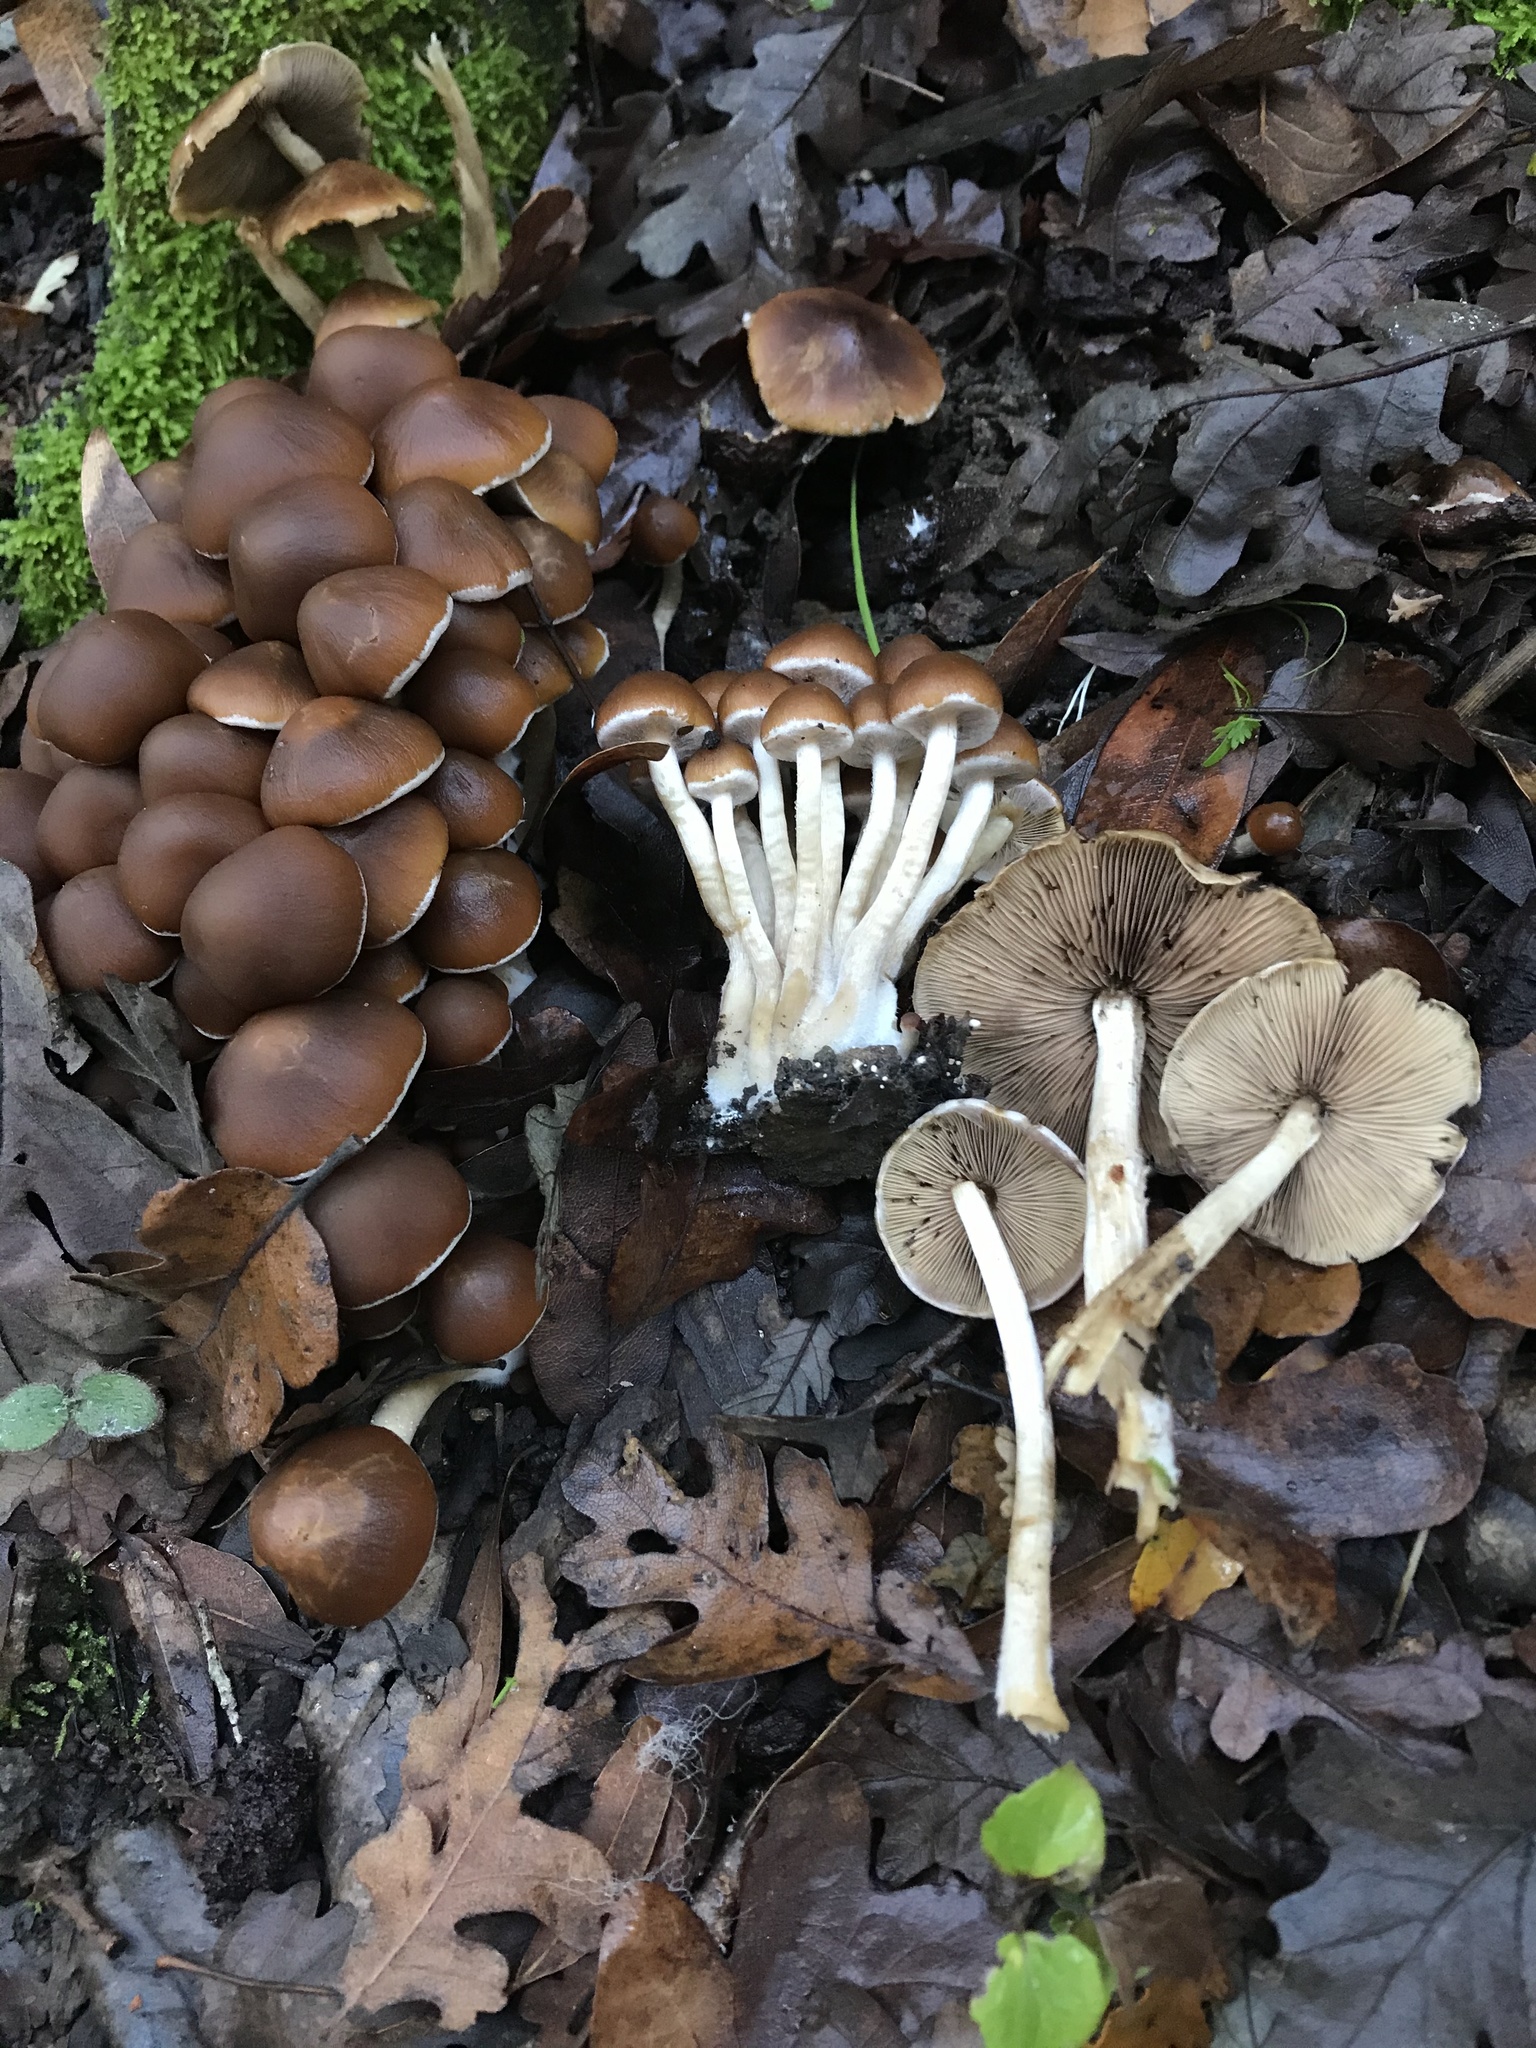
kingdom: Fungi
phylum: Basidiomycota
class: Agaricomycetes
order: Agaricales
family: Psathyrellaceae
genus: Psathyrella
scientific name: Psathyrella piluliformis
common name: Common stump brittlestem
